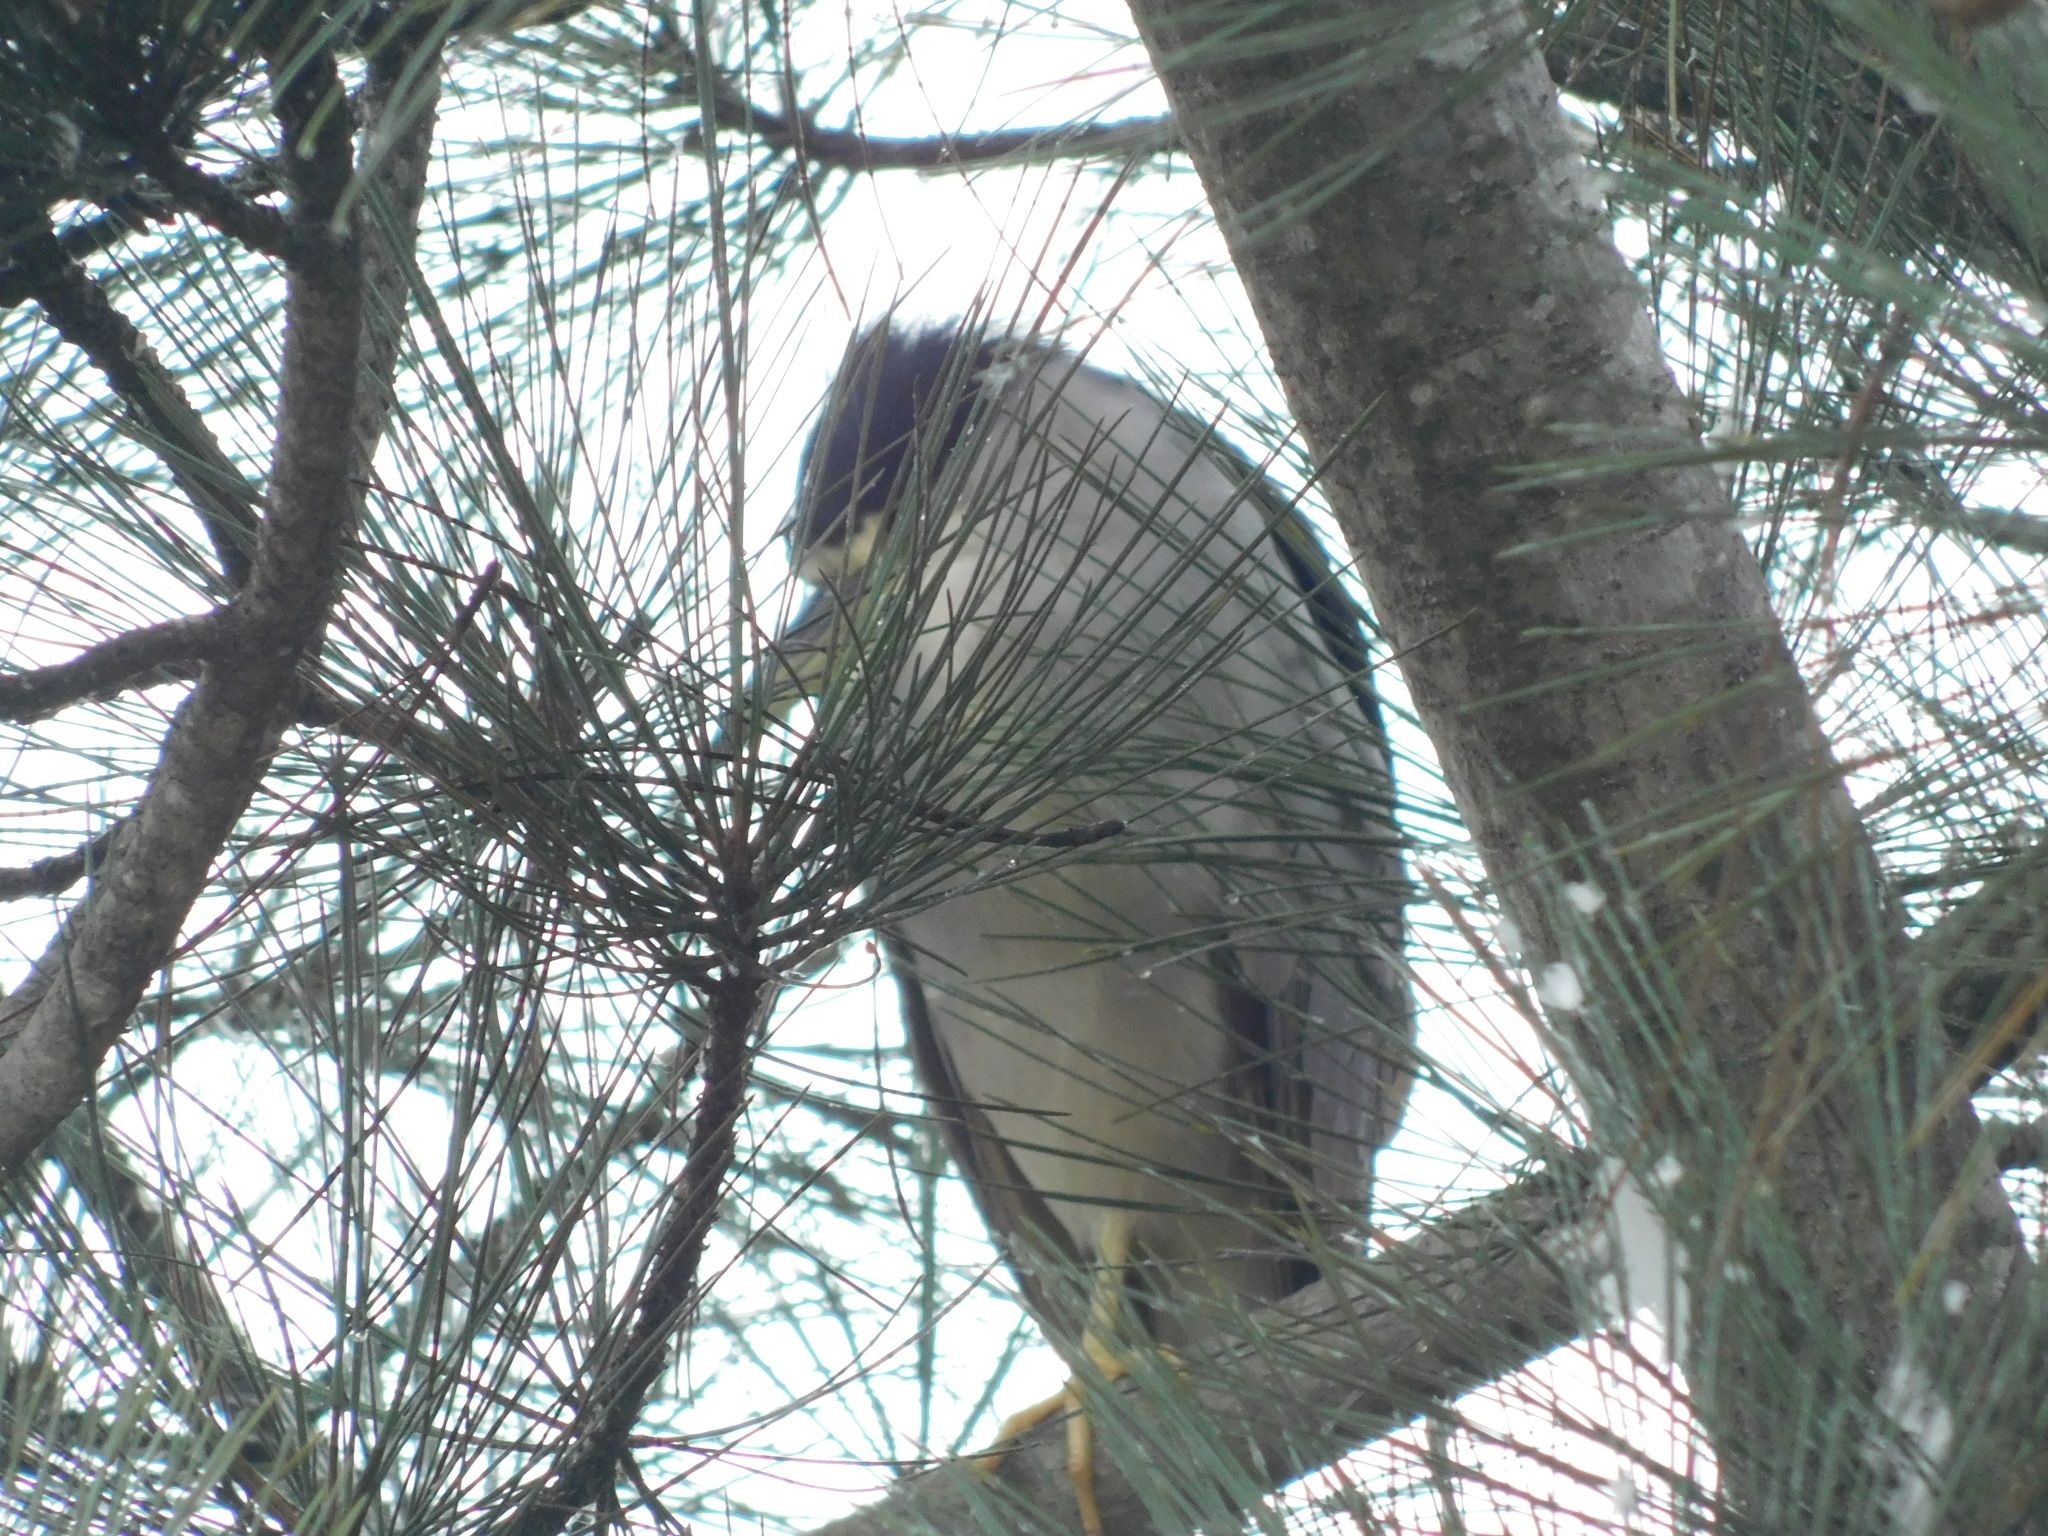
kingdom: Animalia
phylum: Chordata
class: Aves
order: Pelecaniformes
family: Ardeidae
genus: Nycticorax
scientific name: Nycticorax nycticorax
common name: Black-crowned night heron
